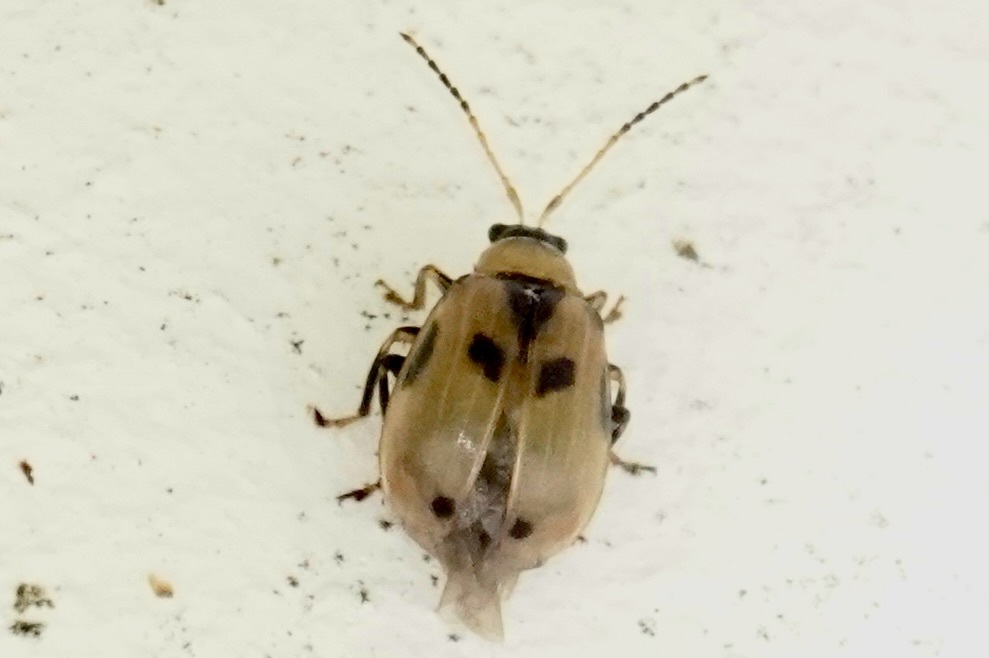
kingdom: Animalia
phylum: Arthropoda
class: Insecta
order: Coleoptera
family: Chrysomelidae
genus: Cerotoma
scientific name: Cerotoma trifurcata
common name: Bean leaf beetle
